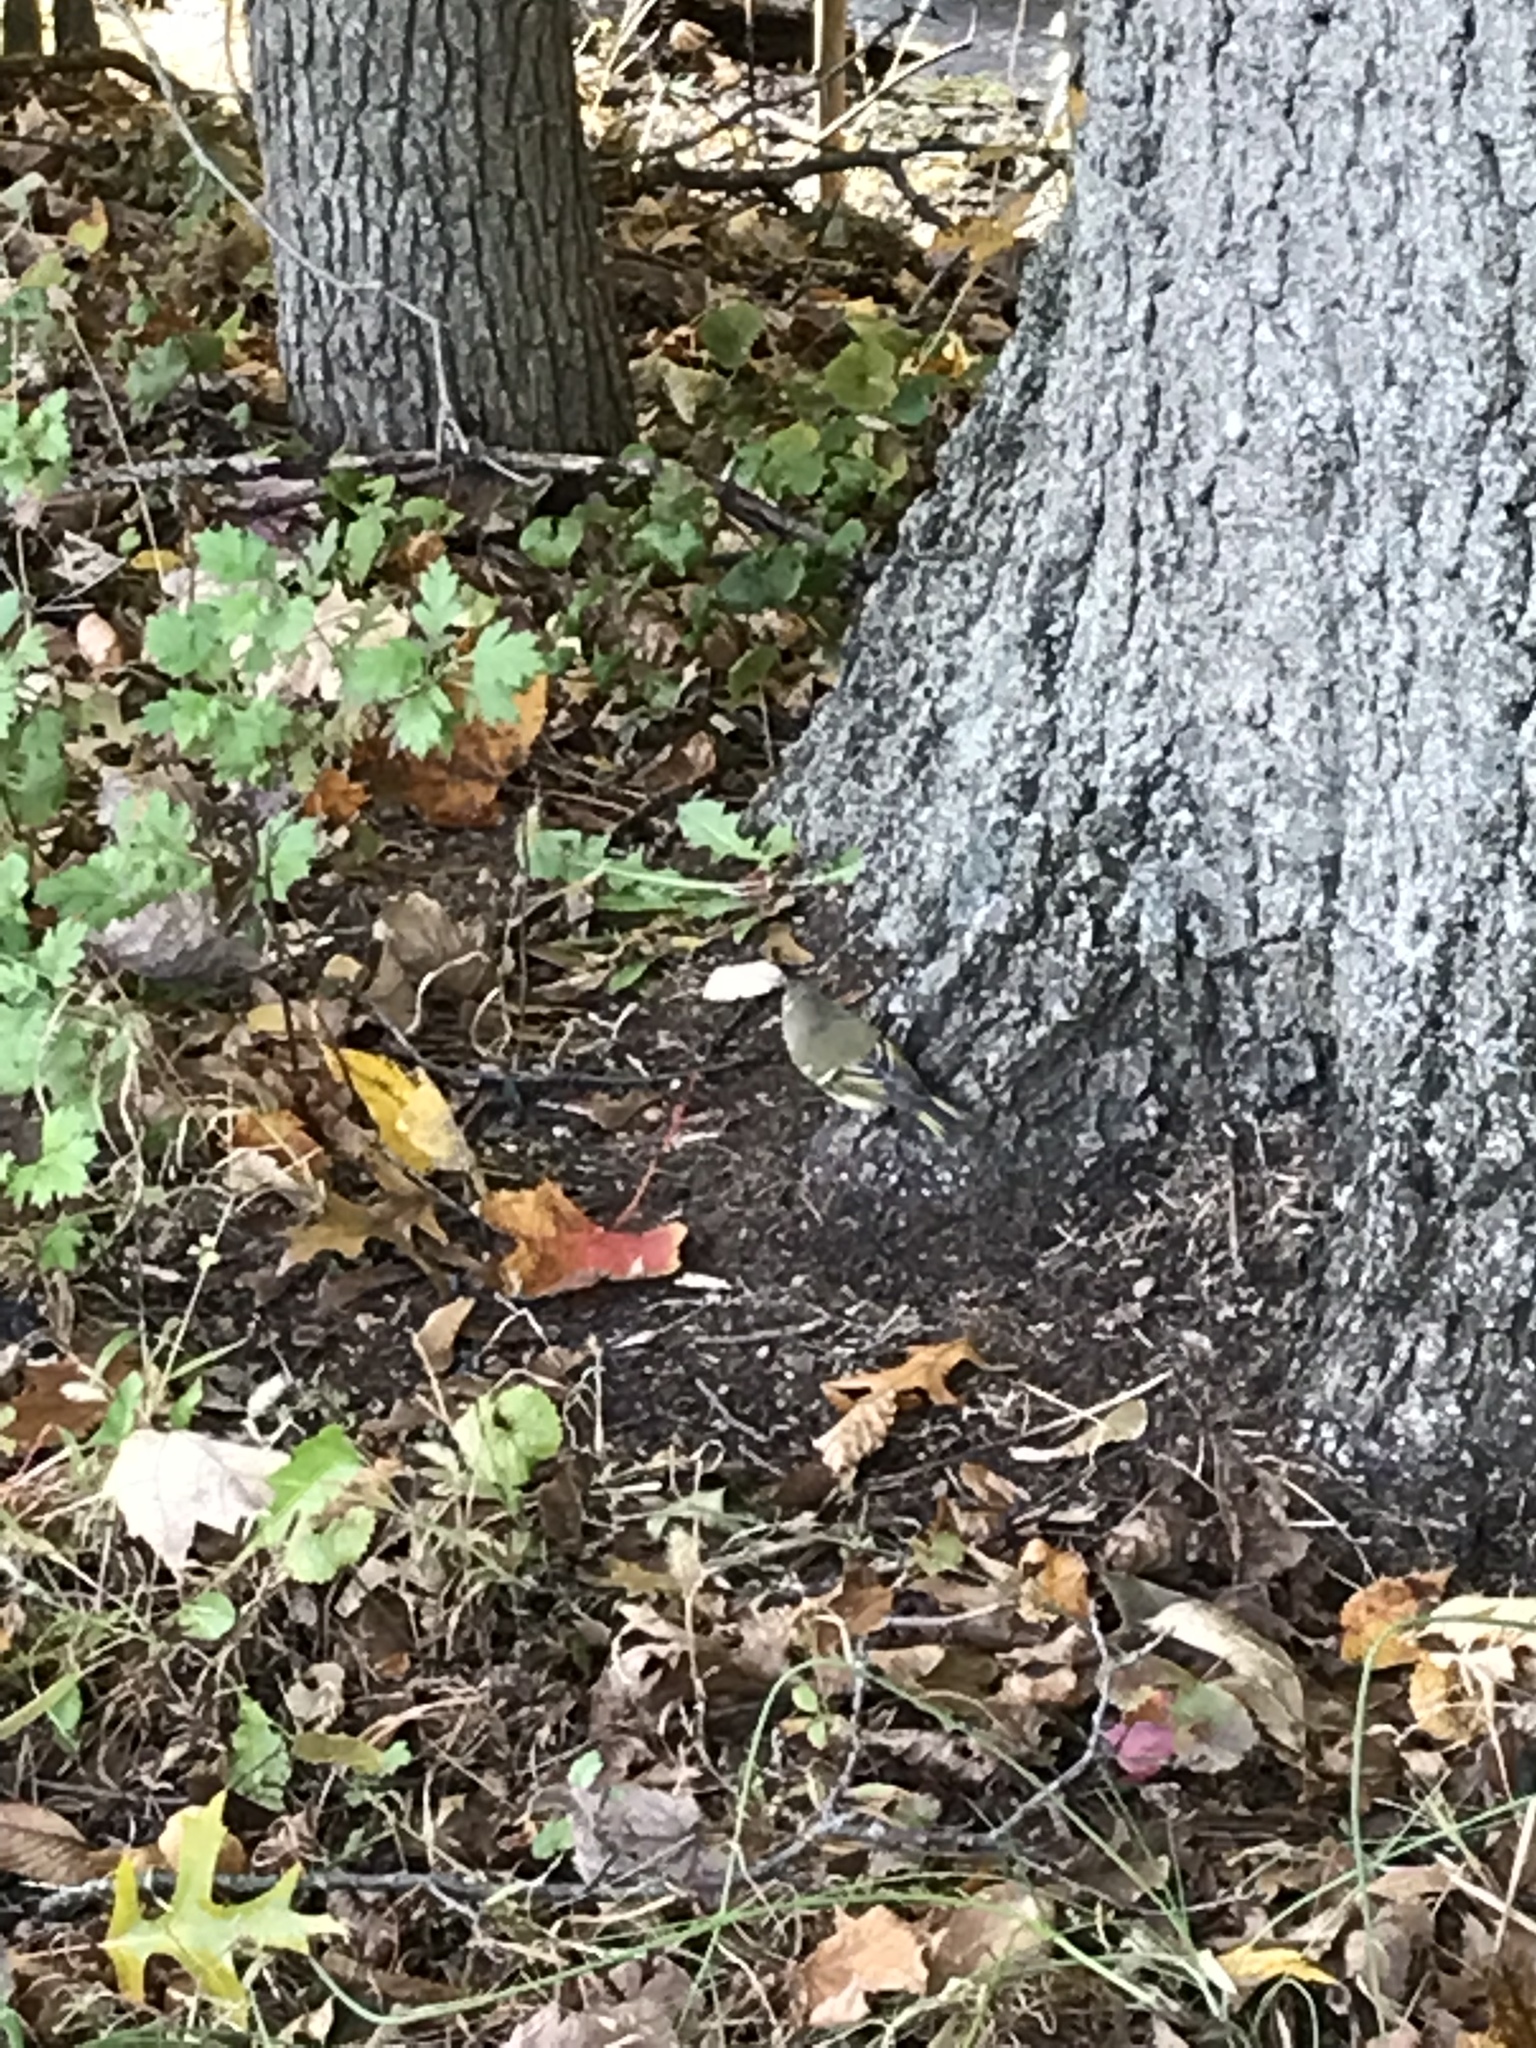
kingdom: Animalia
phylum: Chordata
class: Aves
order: Passeriformes
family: Regulidae
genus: Regulus
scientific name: Regulus calendula
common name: Ruby-crowned kinglet
